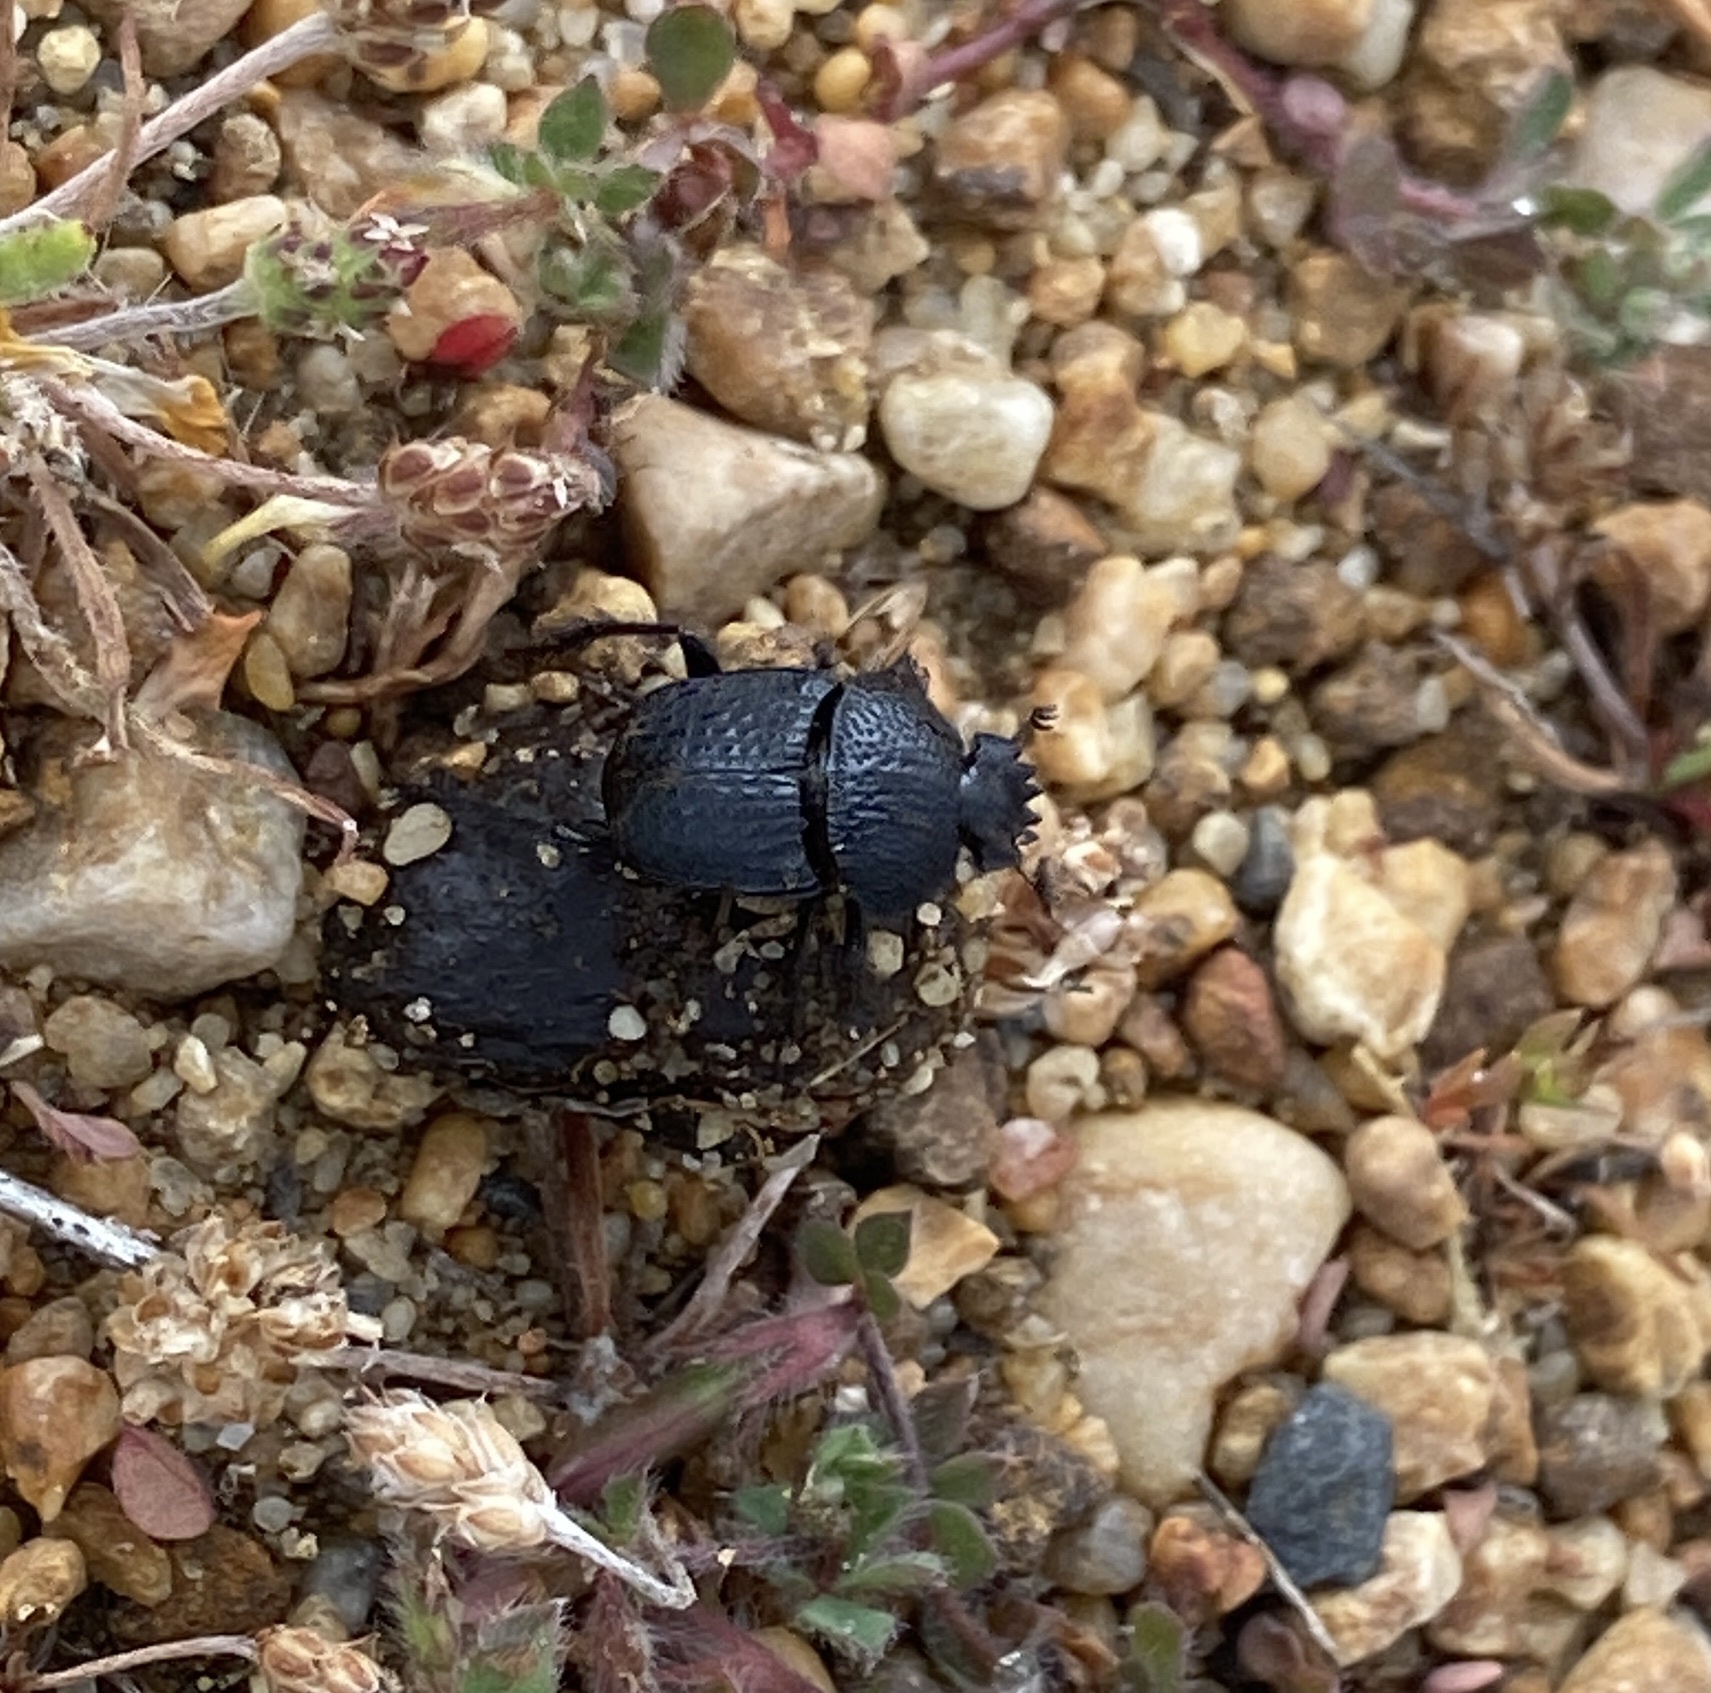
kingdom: Animalia
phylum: Arthropoda
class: Insecta
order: Coleoptera
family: Scarabaeidae
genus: Scarabaeolus
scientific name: Scarabaeolus intricatus
